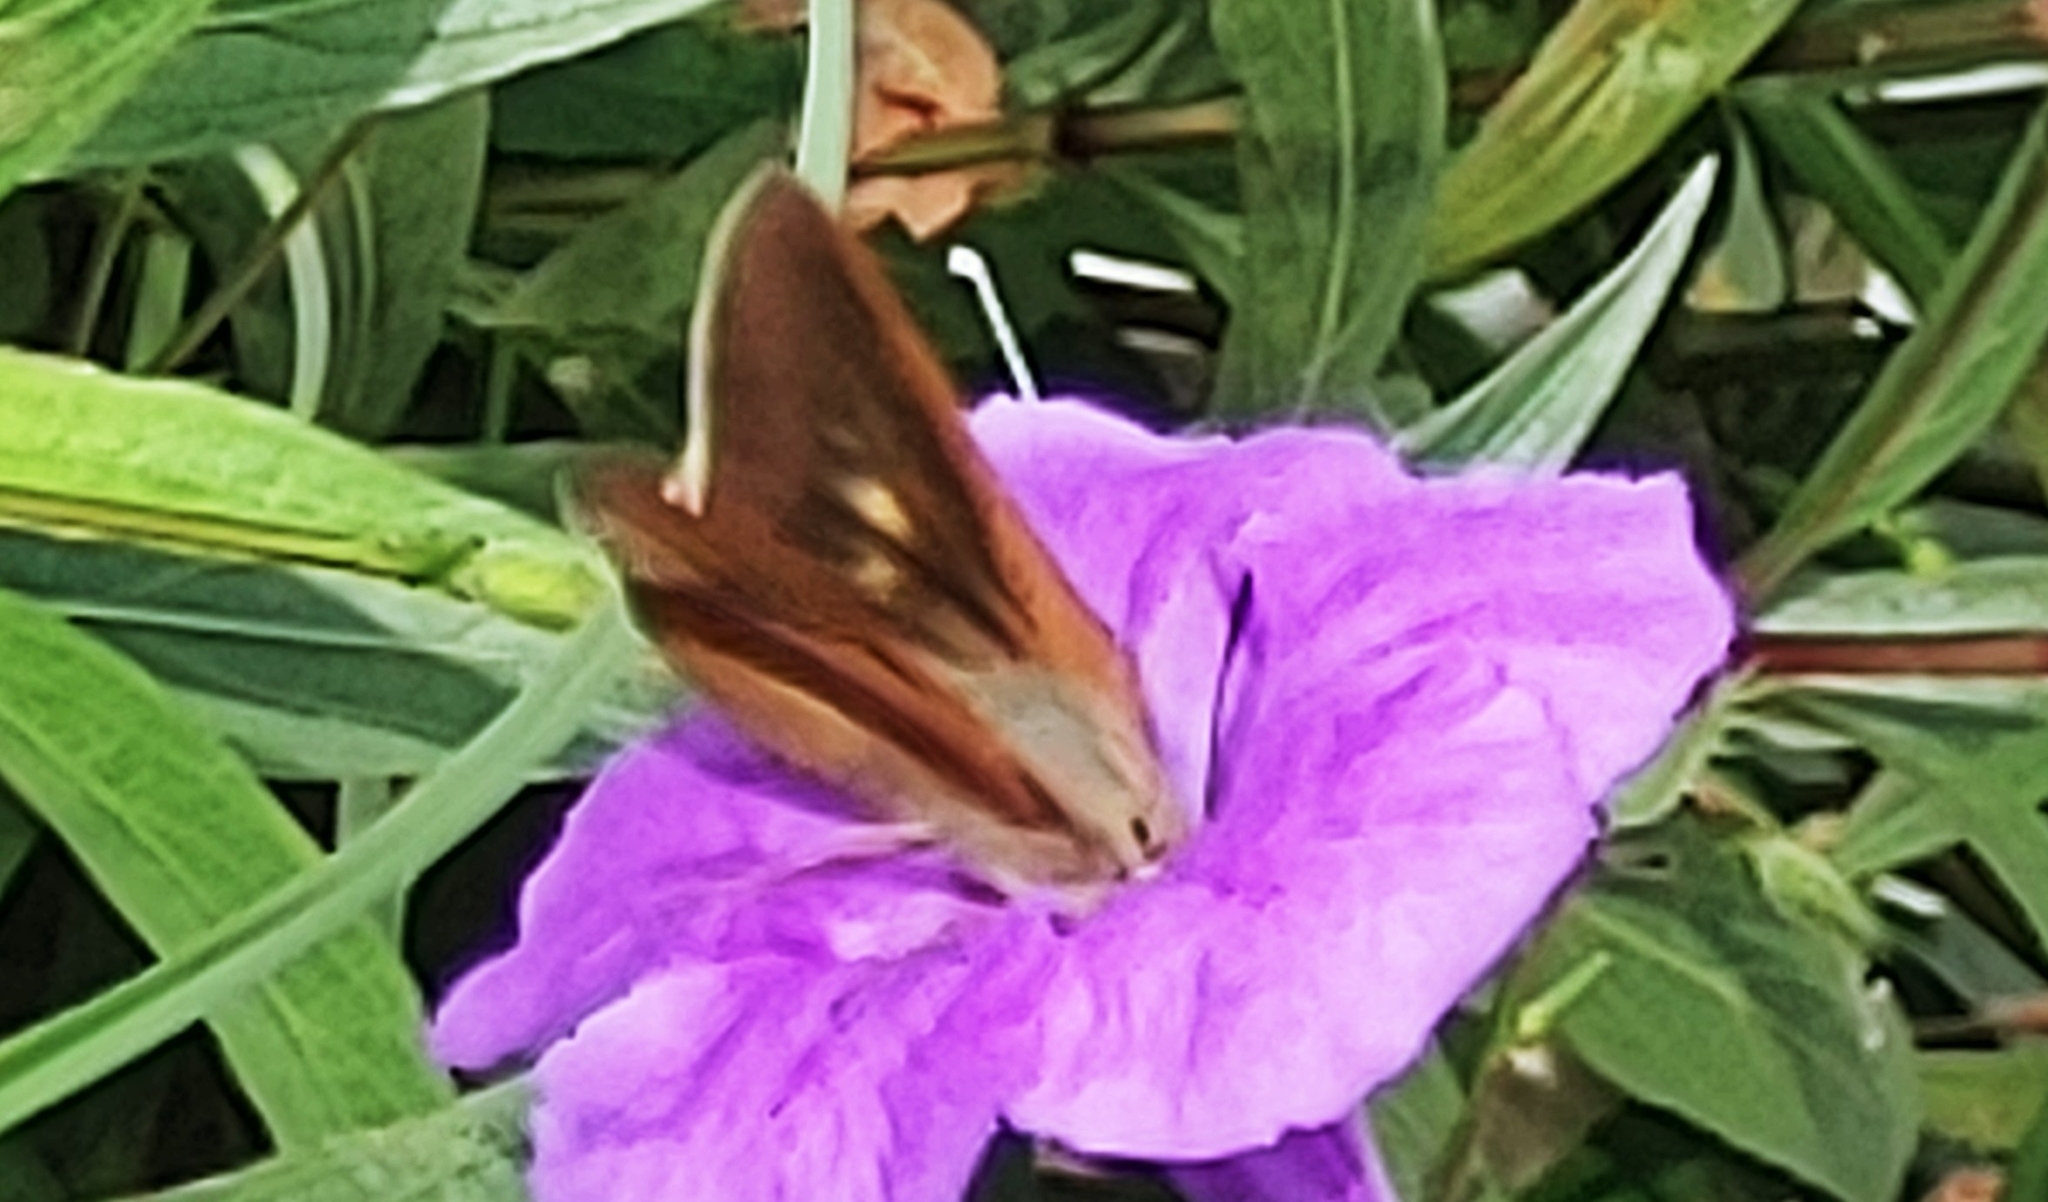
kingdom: Animalia
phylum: Arthropoda
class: Insecta
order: Lepidoptera
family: Hesperiidae
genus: Asbolis
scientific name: Asbolis capucinus
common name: Monk skipper
